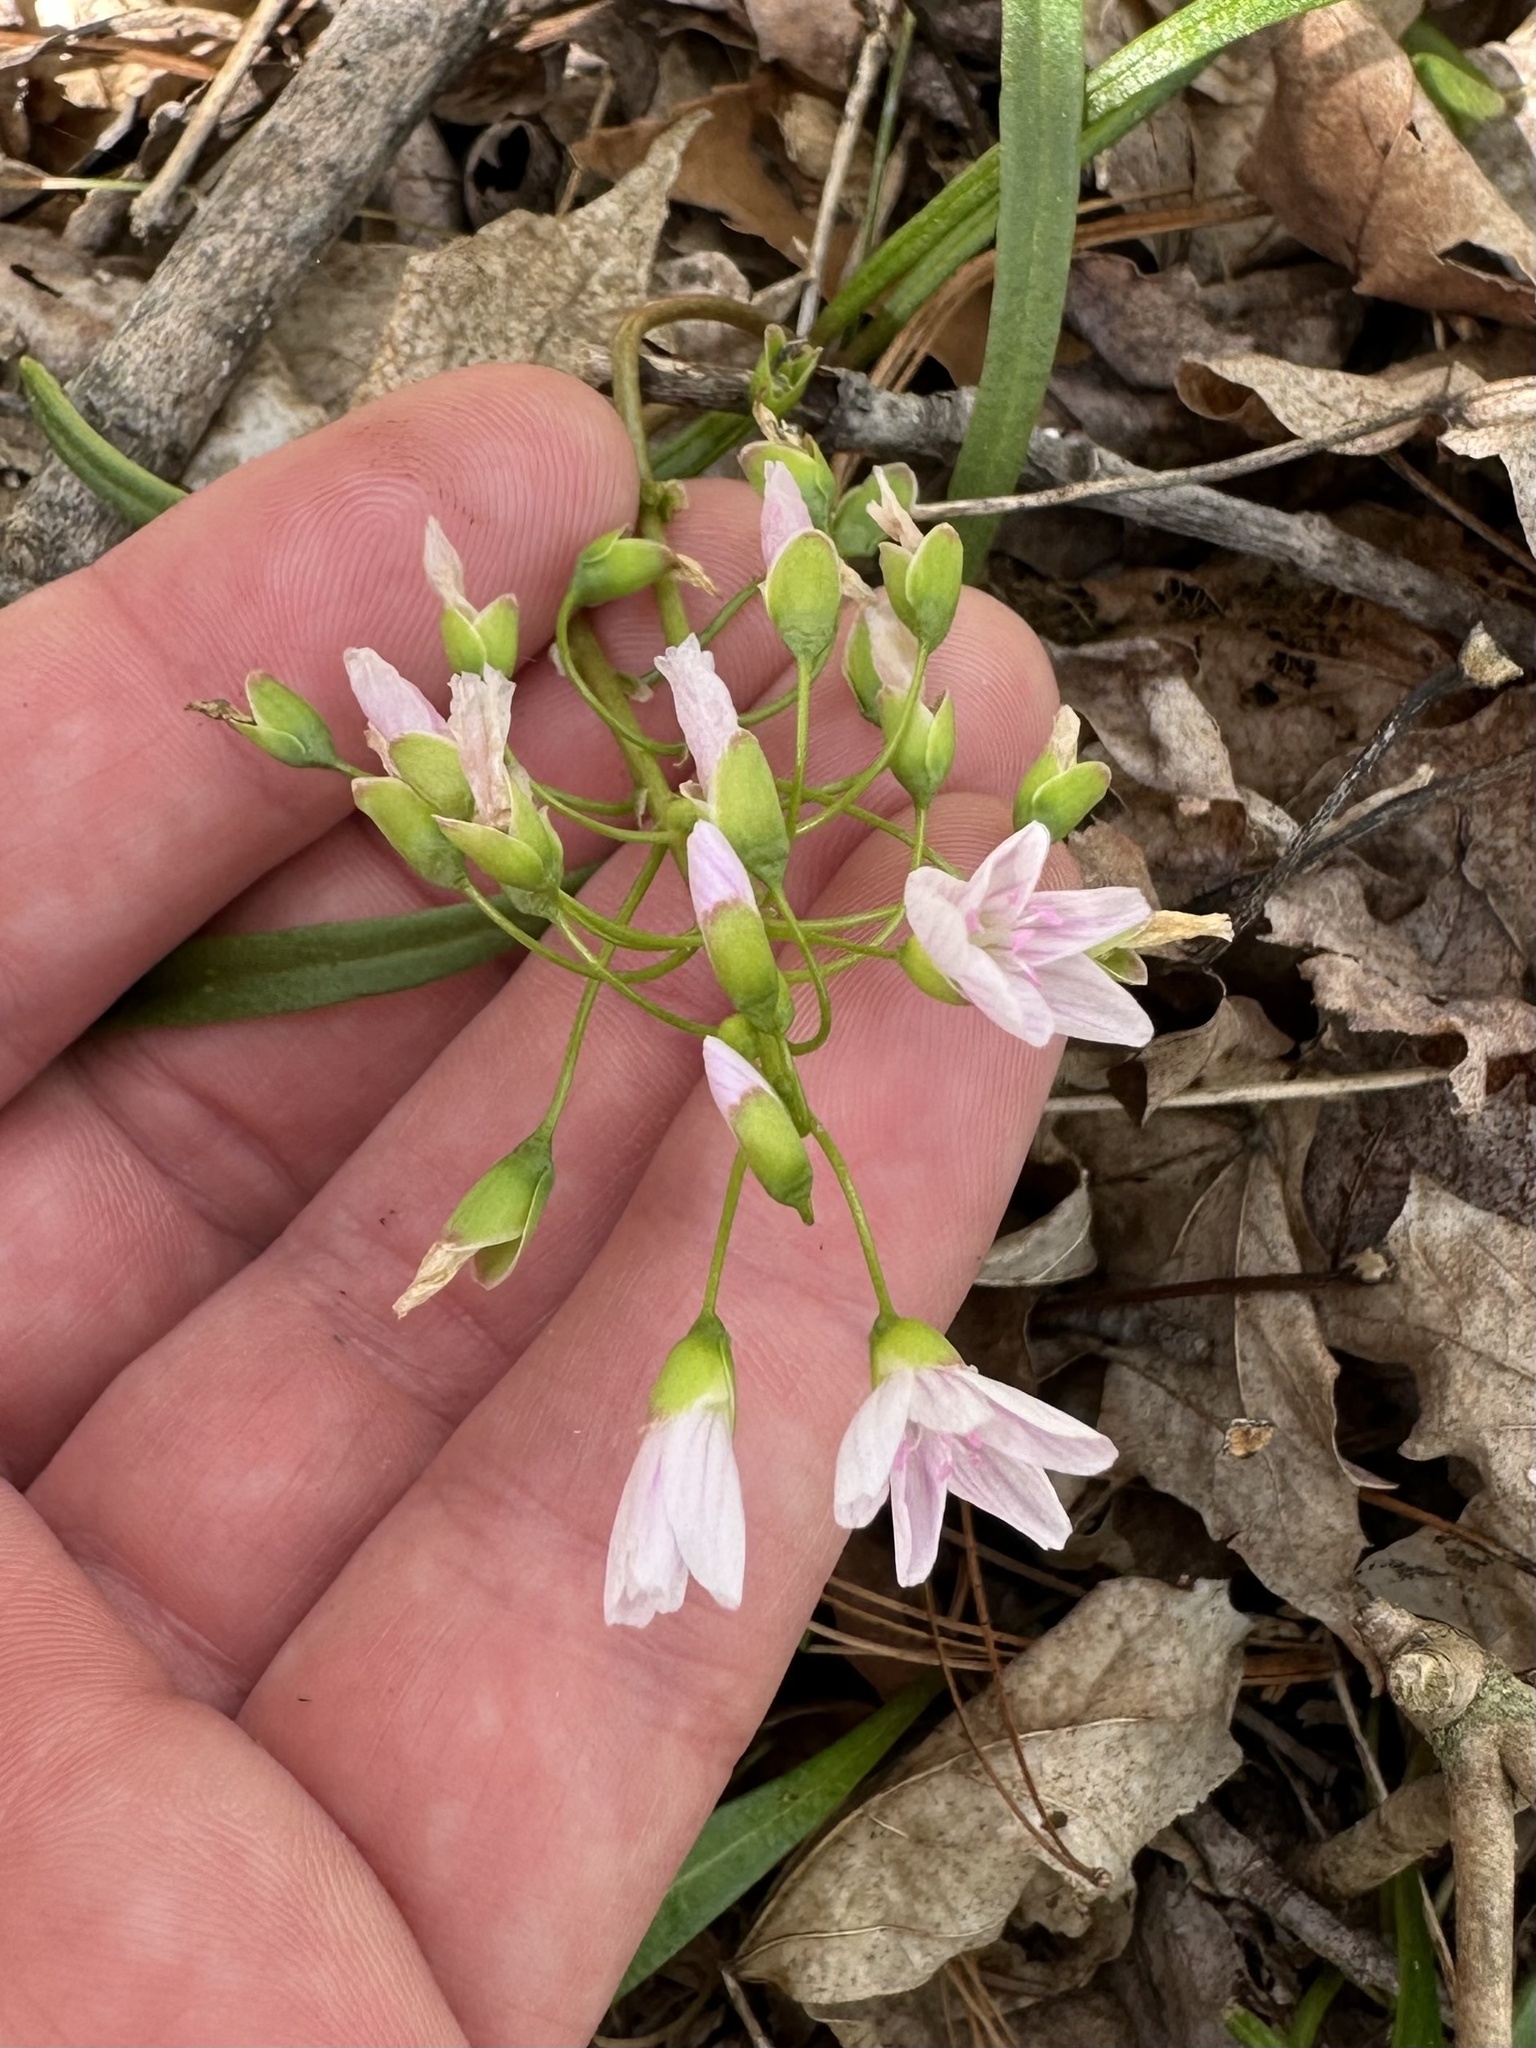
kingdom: Plantae
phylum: Tracheophyta
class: Magnoliopsida
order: Caryophyllales
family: Montiaceae
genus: Claytonia
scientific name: Claytonia virginica
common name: Virginia springbeauty
